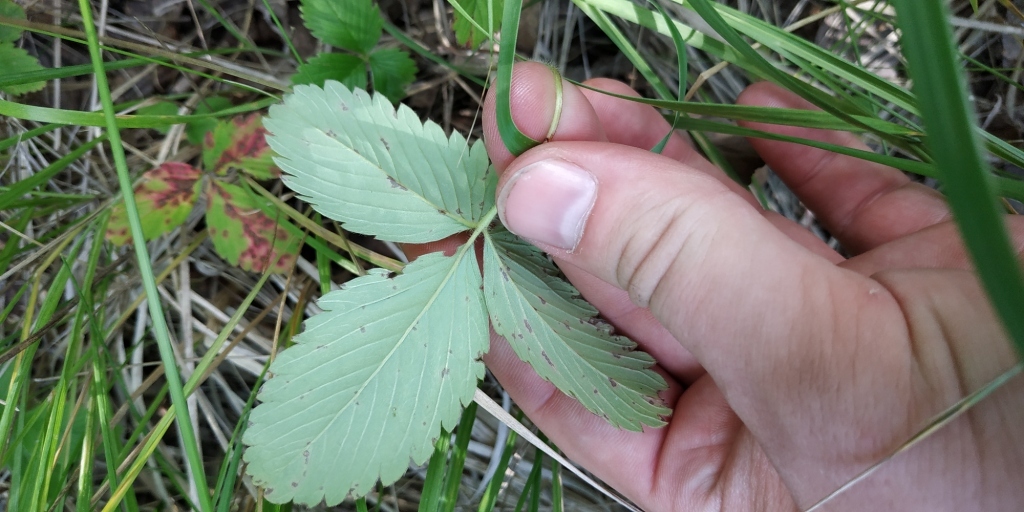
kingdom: Plantae
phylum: Tracheophyta
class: Magnoliopsida
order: Rosales
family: Rosaceae
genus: Fragaria
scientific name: Fragaria viridis
